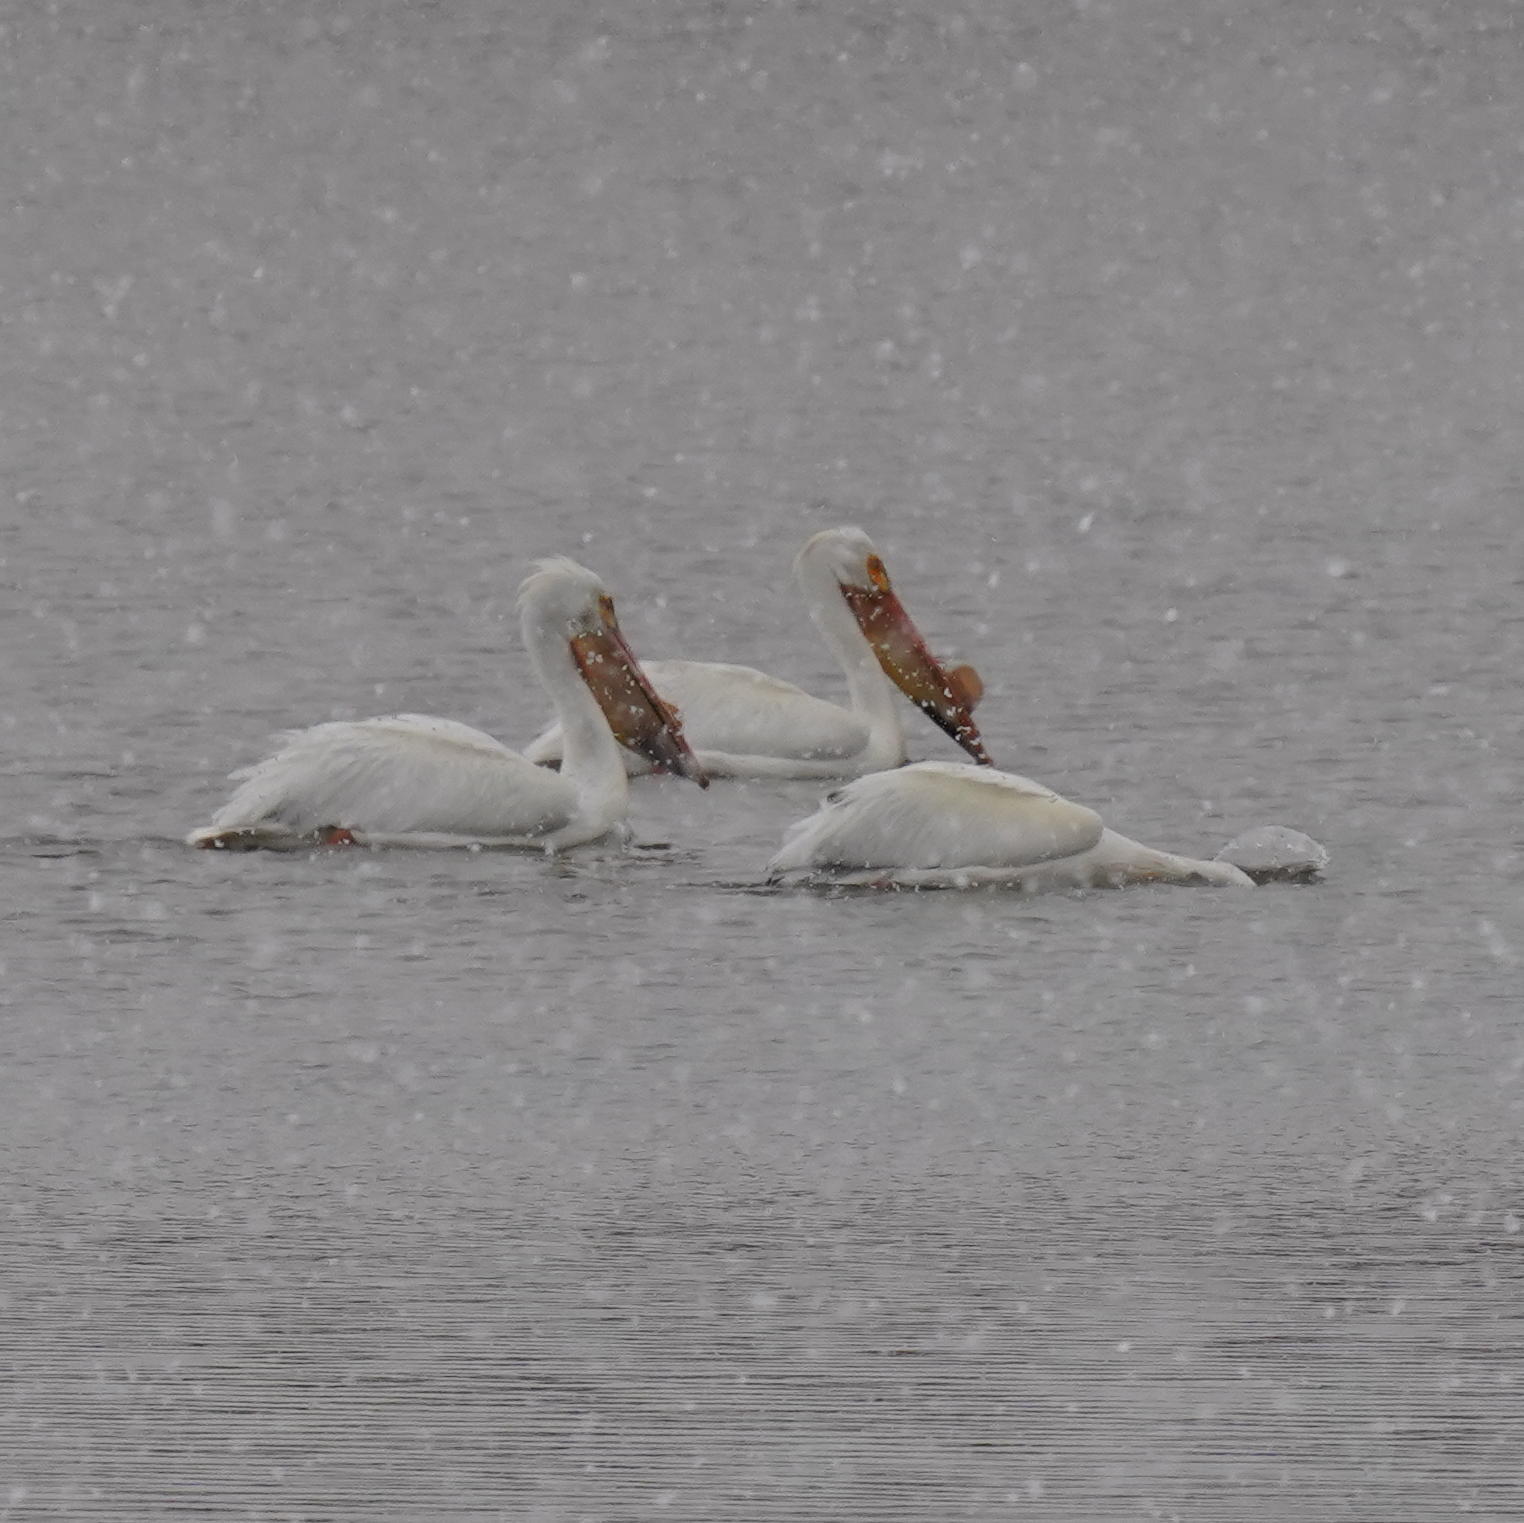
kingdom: Animalia
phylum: Chordata
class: Aves
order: Pelecaniformes
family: Pelecanidae
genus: Pelecanus
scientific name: Pelecanus erythrorhynchos
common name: American white pelican
